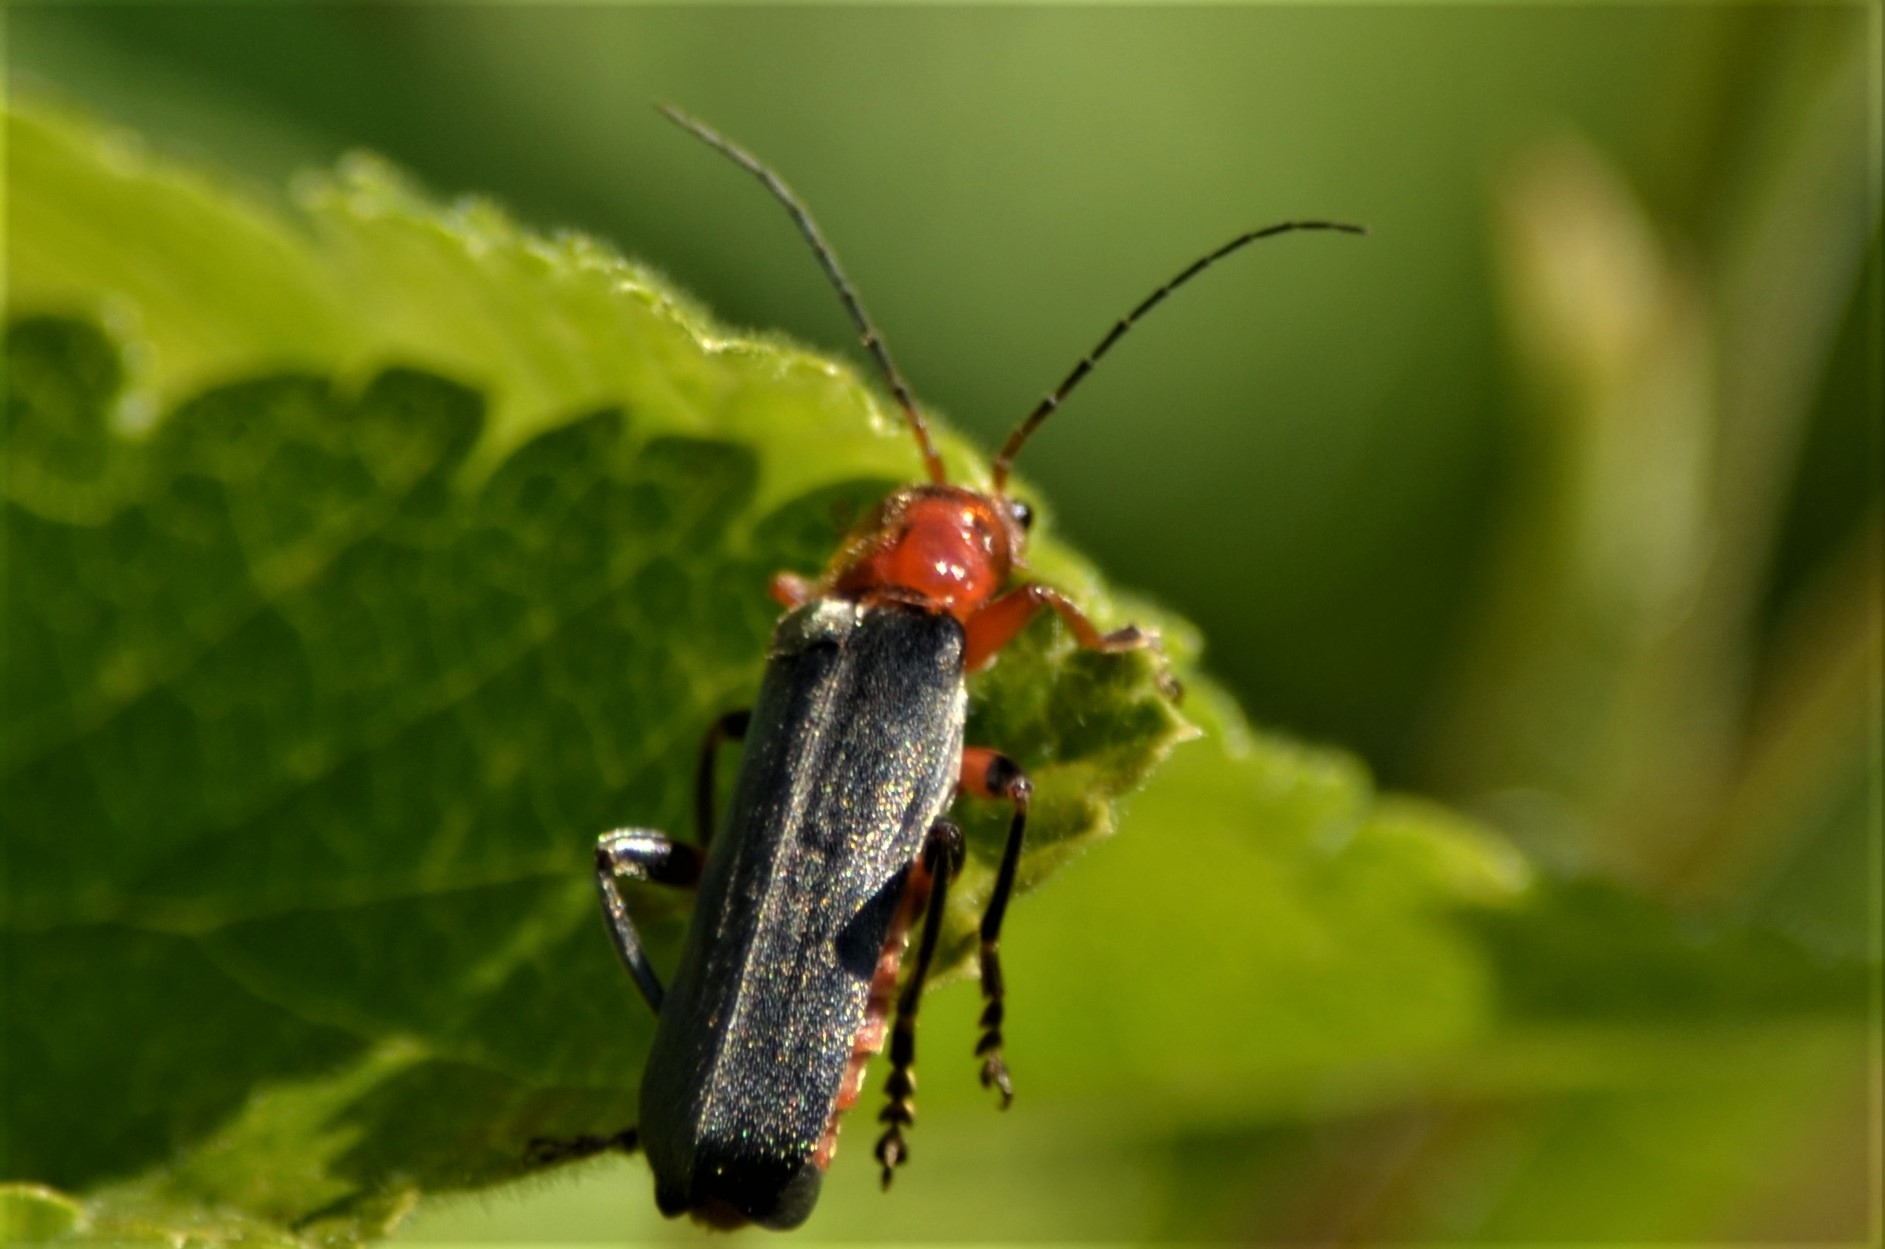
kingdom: Animalia
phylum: Arthropoda
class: Insecta
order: Coleoptera
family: Cantharidae
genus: Cantharis
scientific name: Cantharis livida
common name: Livid soldier beetle
